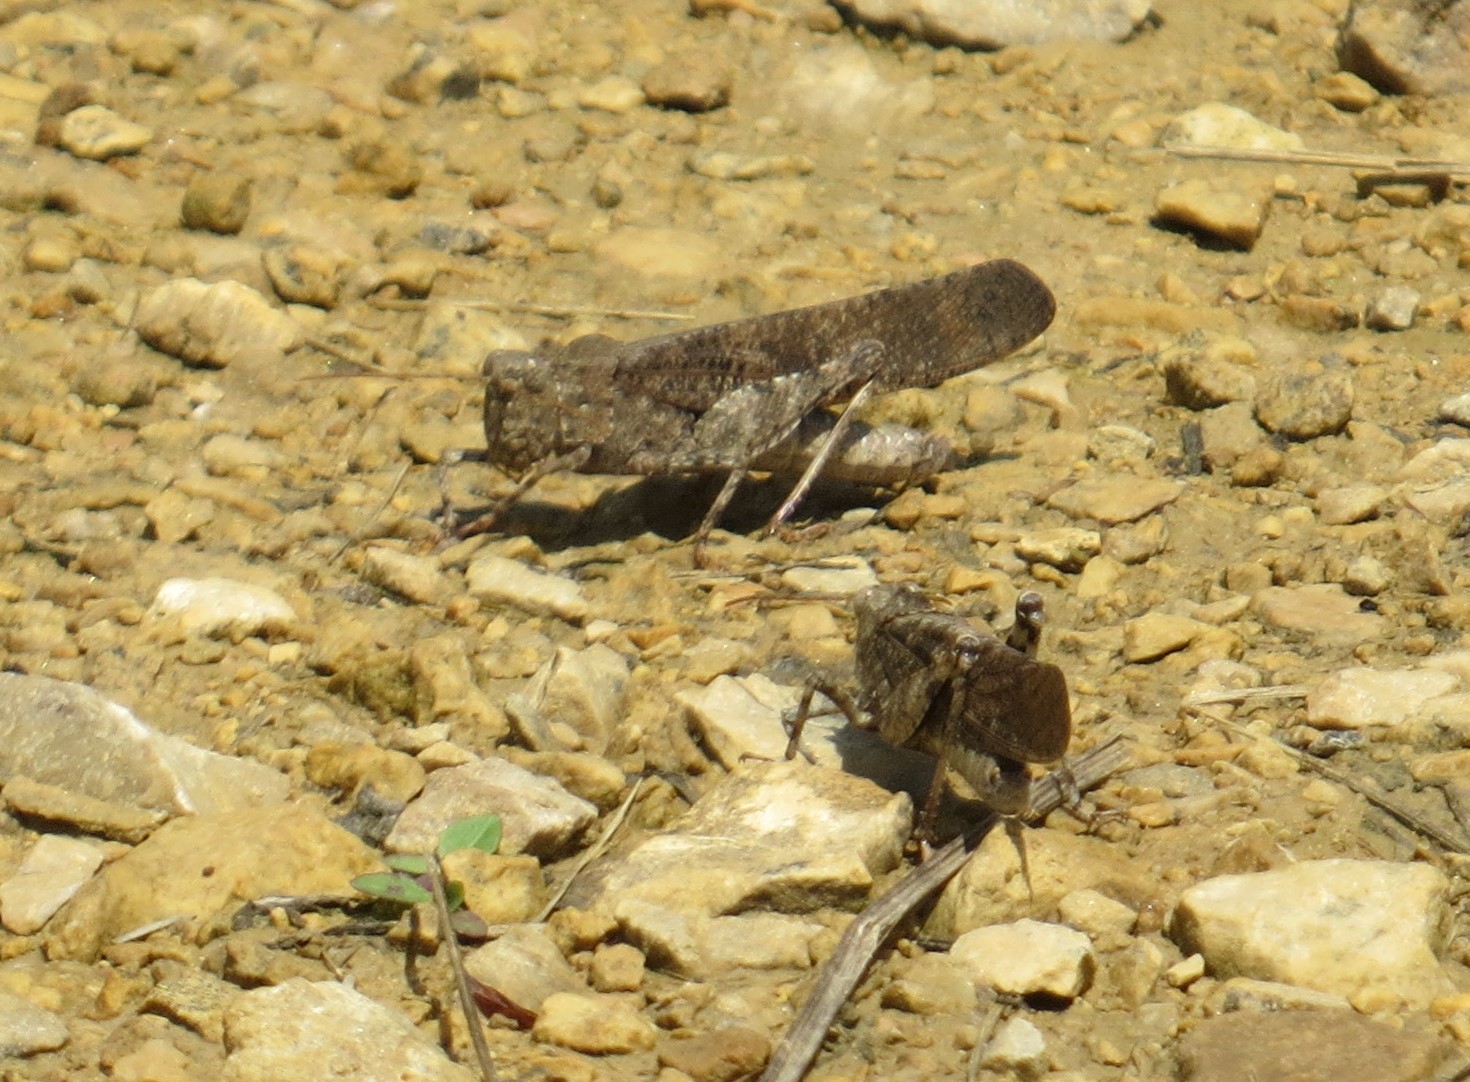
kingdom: Animalia
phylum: Arthropoda
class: Insecta
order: Orthoptera
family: Acrididae
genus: Dissosteira
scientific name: Dissosteira carolina
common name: Carolina grasshopper
